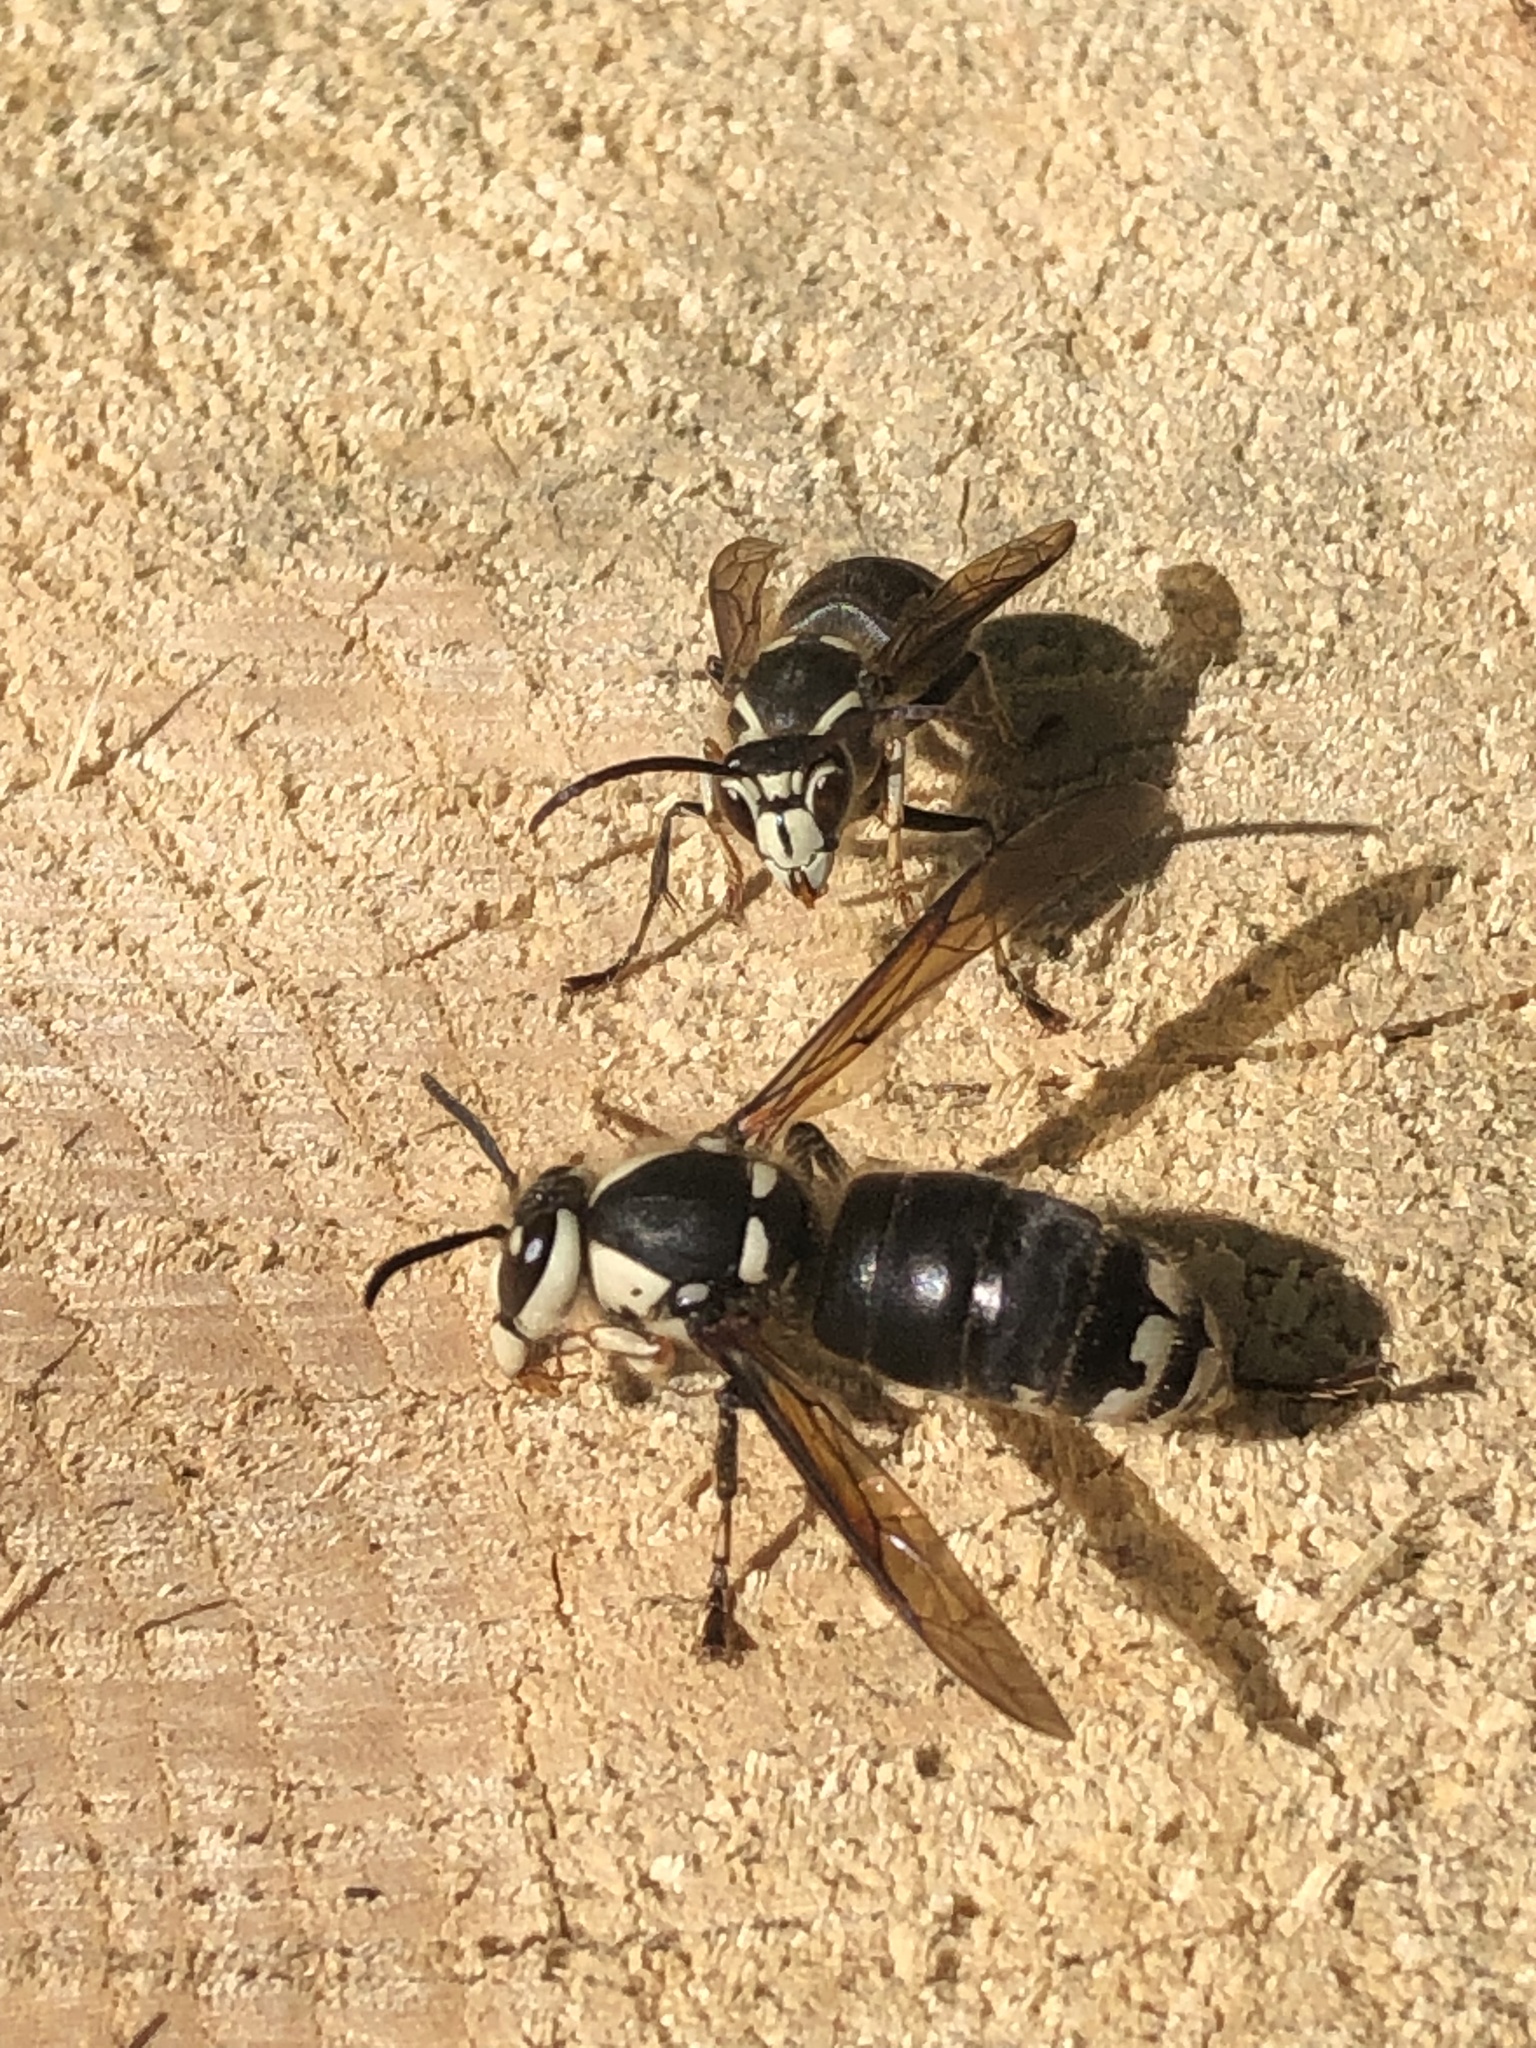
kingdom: Animalia
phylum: Arthropoda
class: Insecta
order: Hymenoptera
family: Vespidae
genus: Dolichovespula
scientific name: Dolichovespula maculata
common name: Bald-faced hornet
